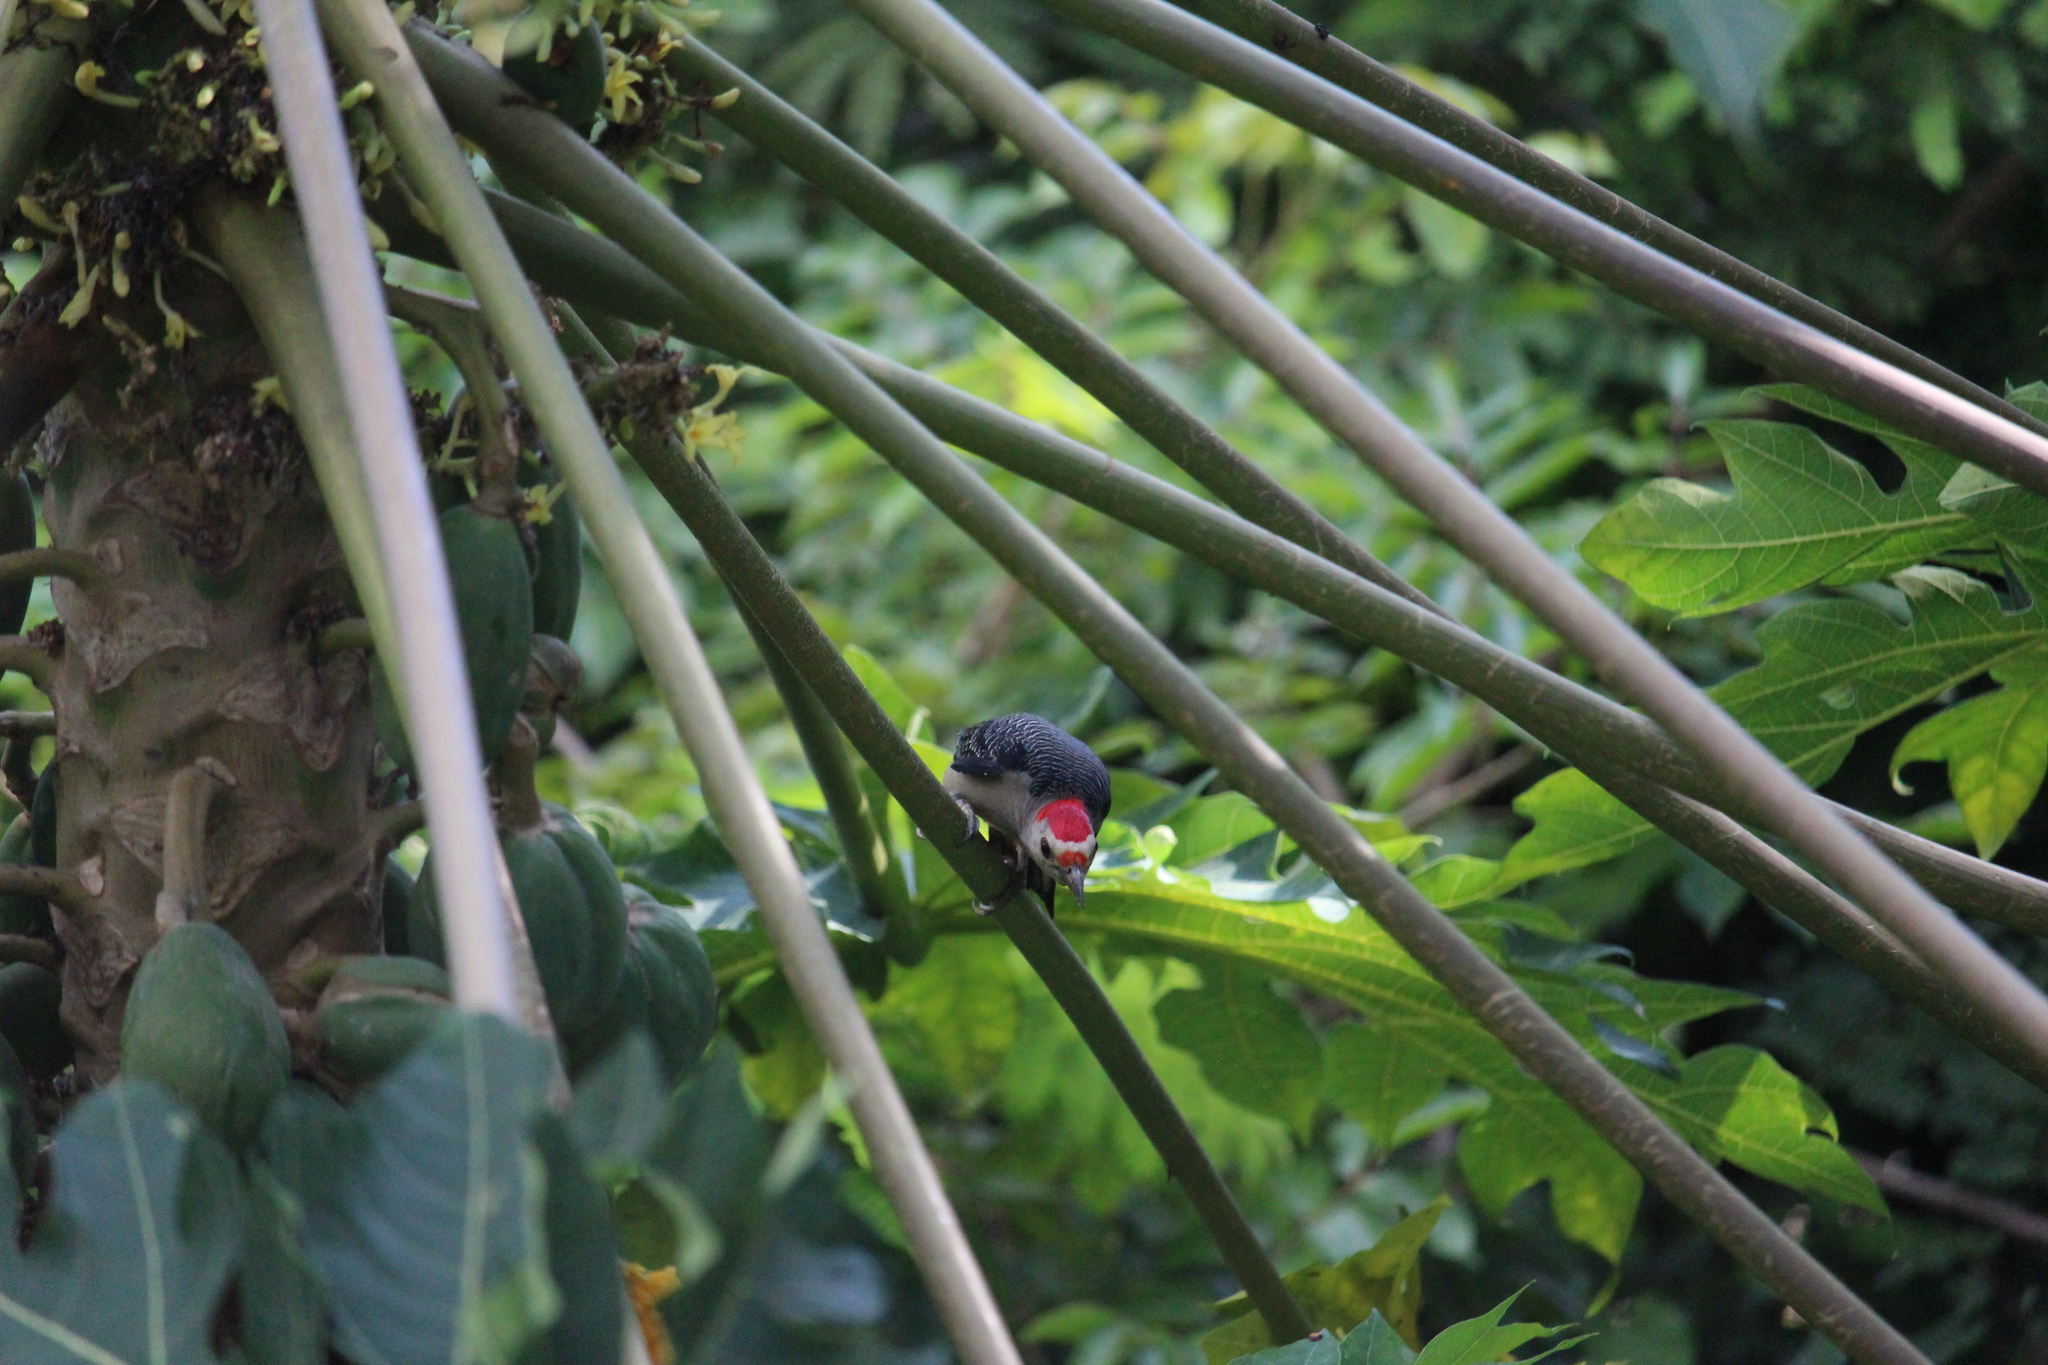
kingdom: Animalia
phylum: Chordata
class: Aves
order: Piciformes
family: Picidae
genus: Melanerpes
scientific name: Melanerpes aurifrons
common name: Golden-fronted woodpecker
